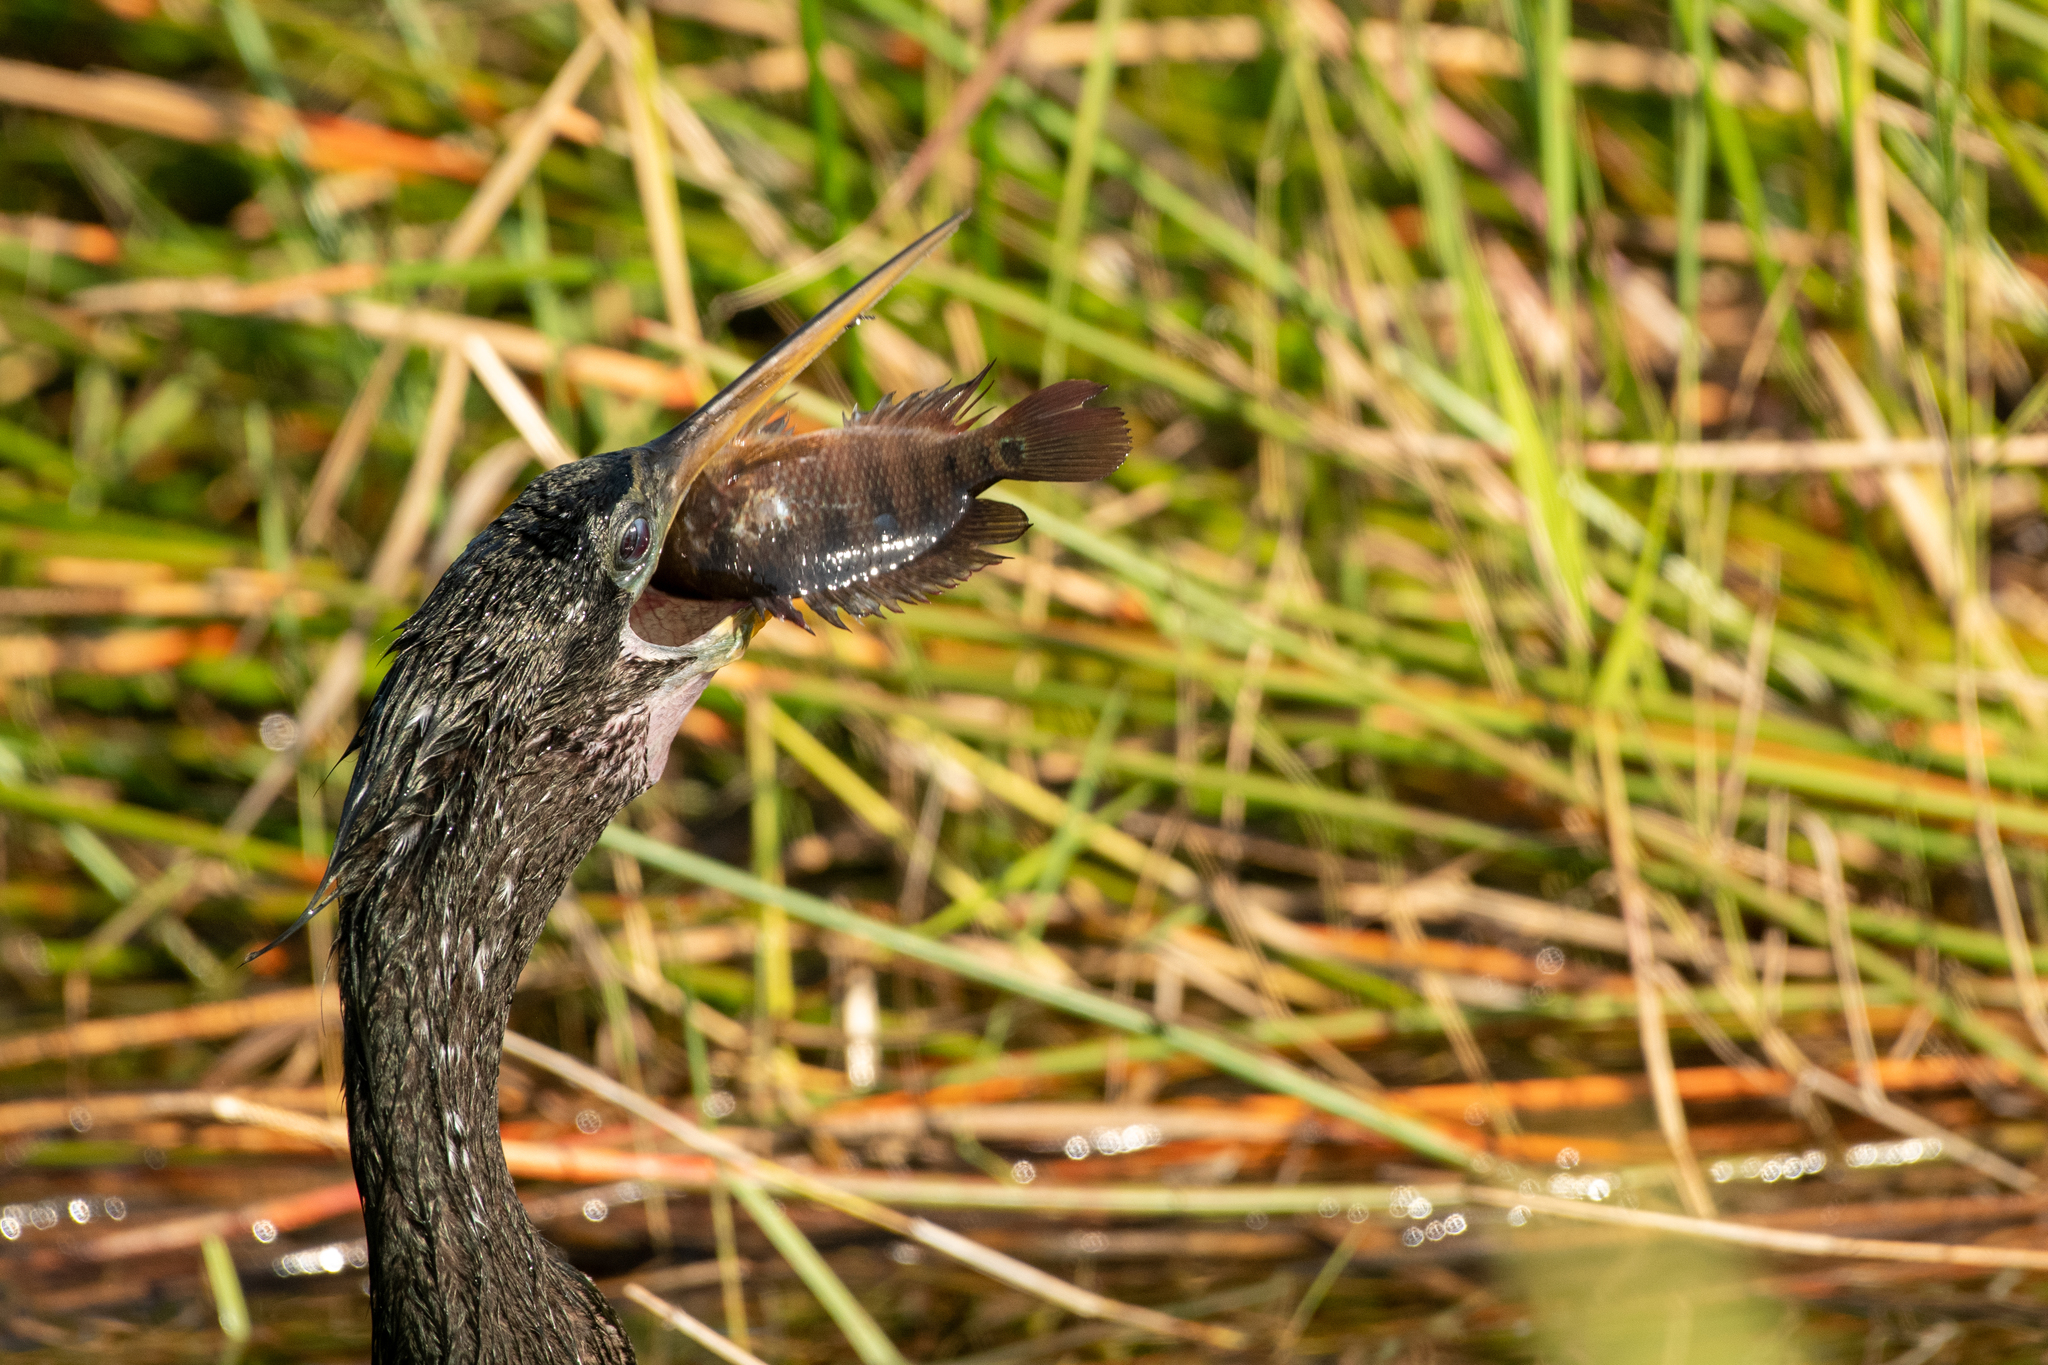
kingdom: Animalia
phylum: Chordata
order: Perciformes
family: Cichlidae
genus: Mayaheros
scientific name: Mayaheros urophthalmus
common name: Mayan cichlid
